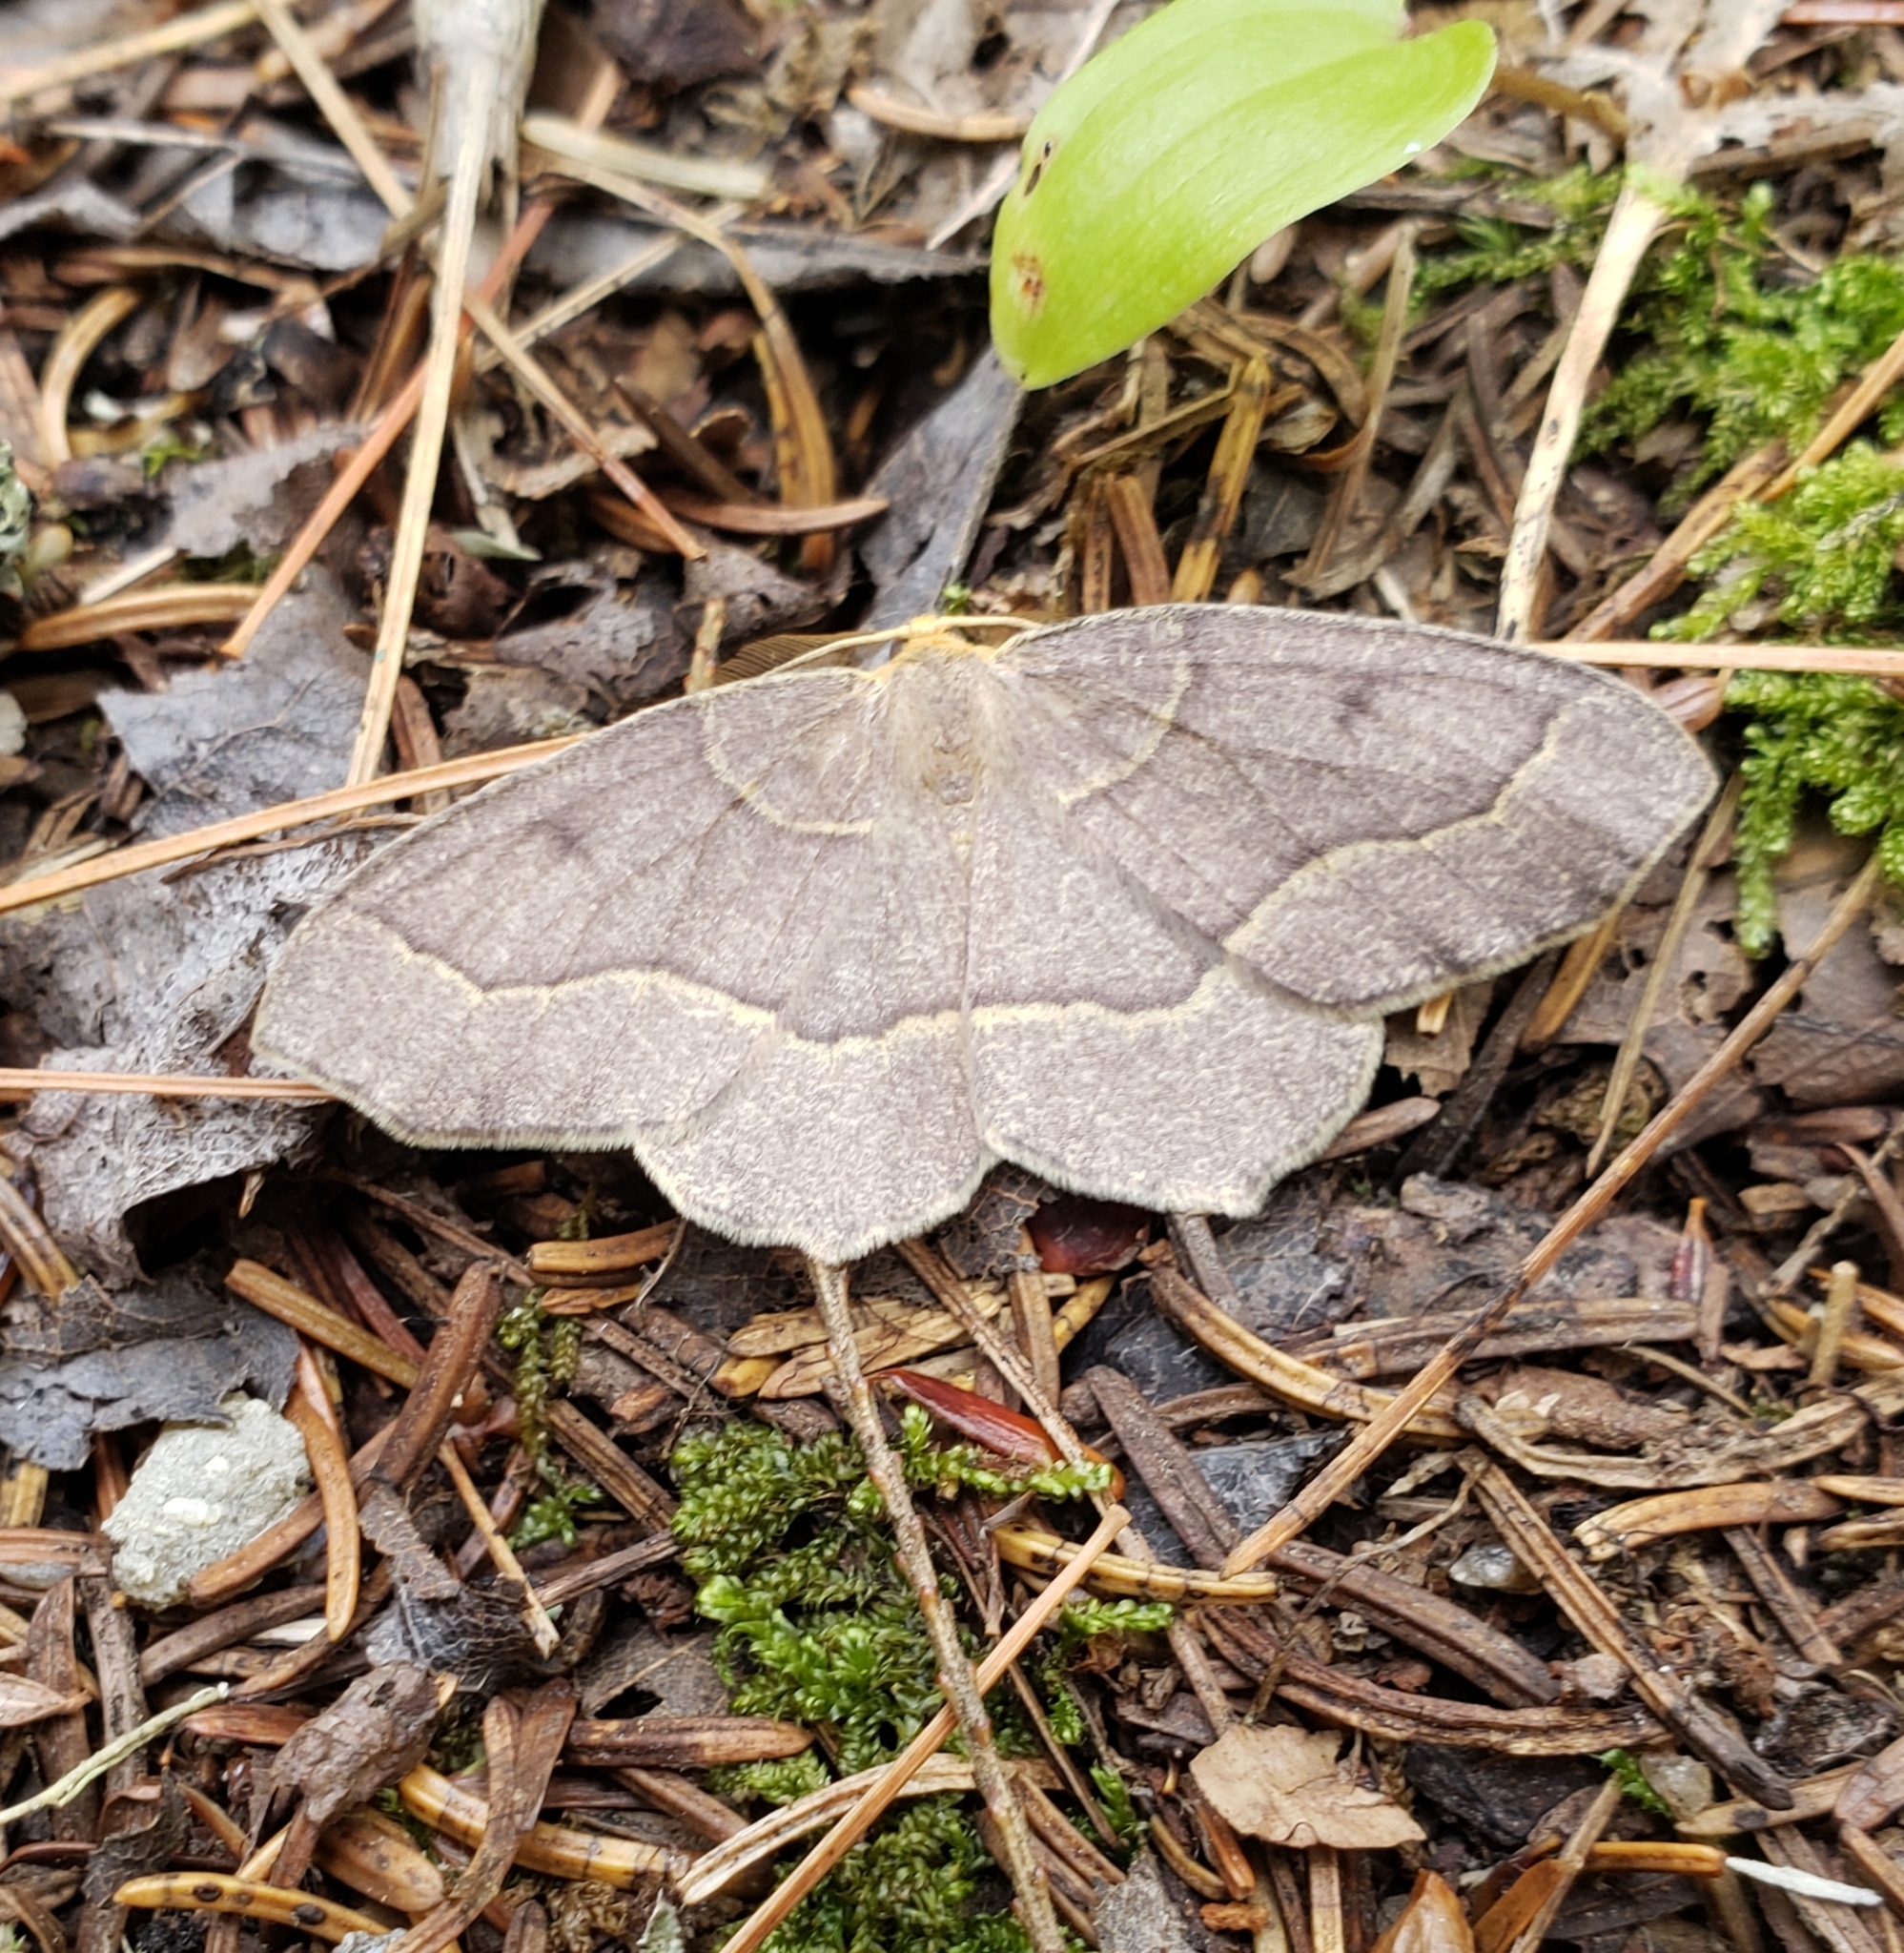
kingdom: Animalia
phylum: Arthropoda
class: Insecta
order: Lepidoptera
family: Geometridae
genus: Lambdina
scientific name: Lambdina fiscellaria
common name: Hemlock looper
